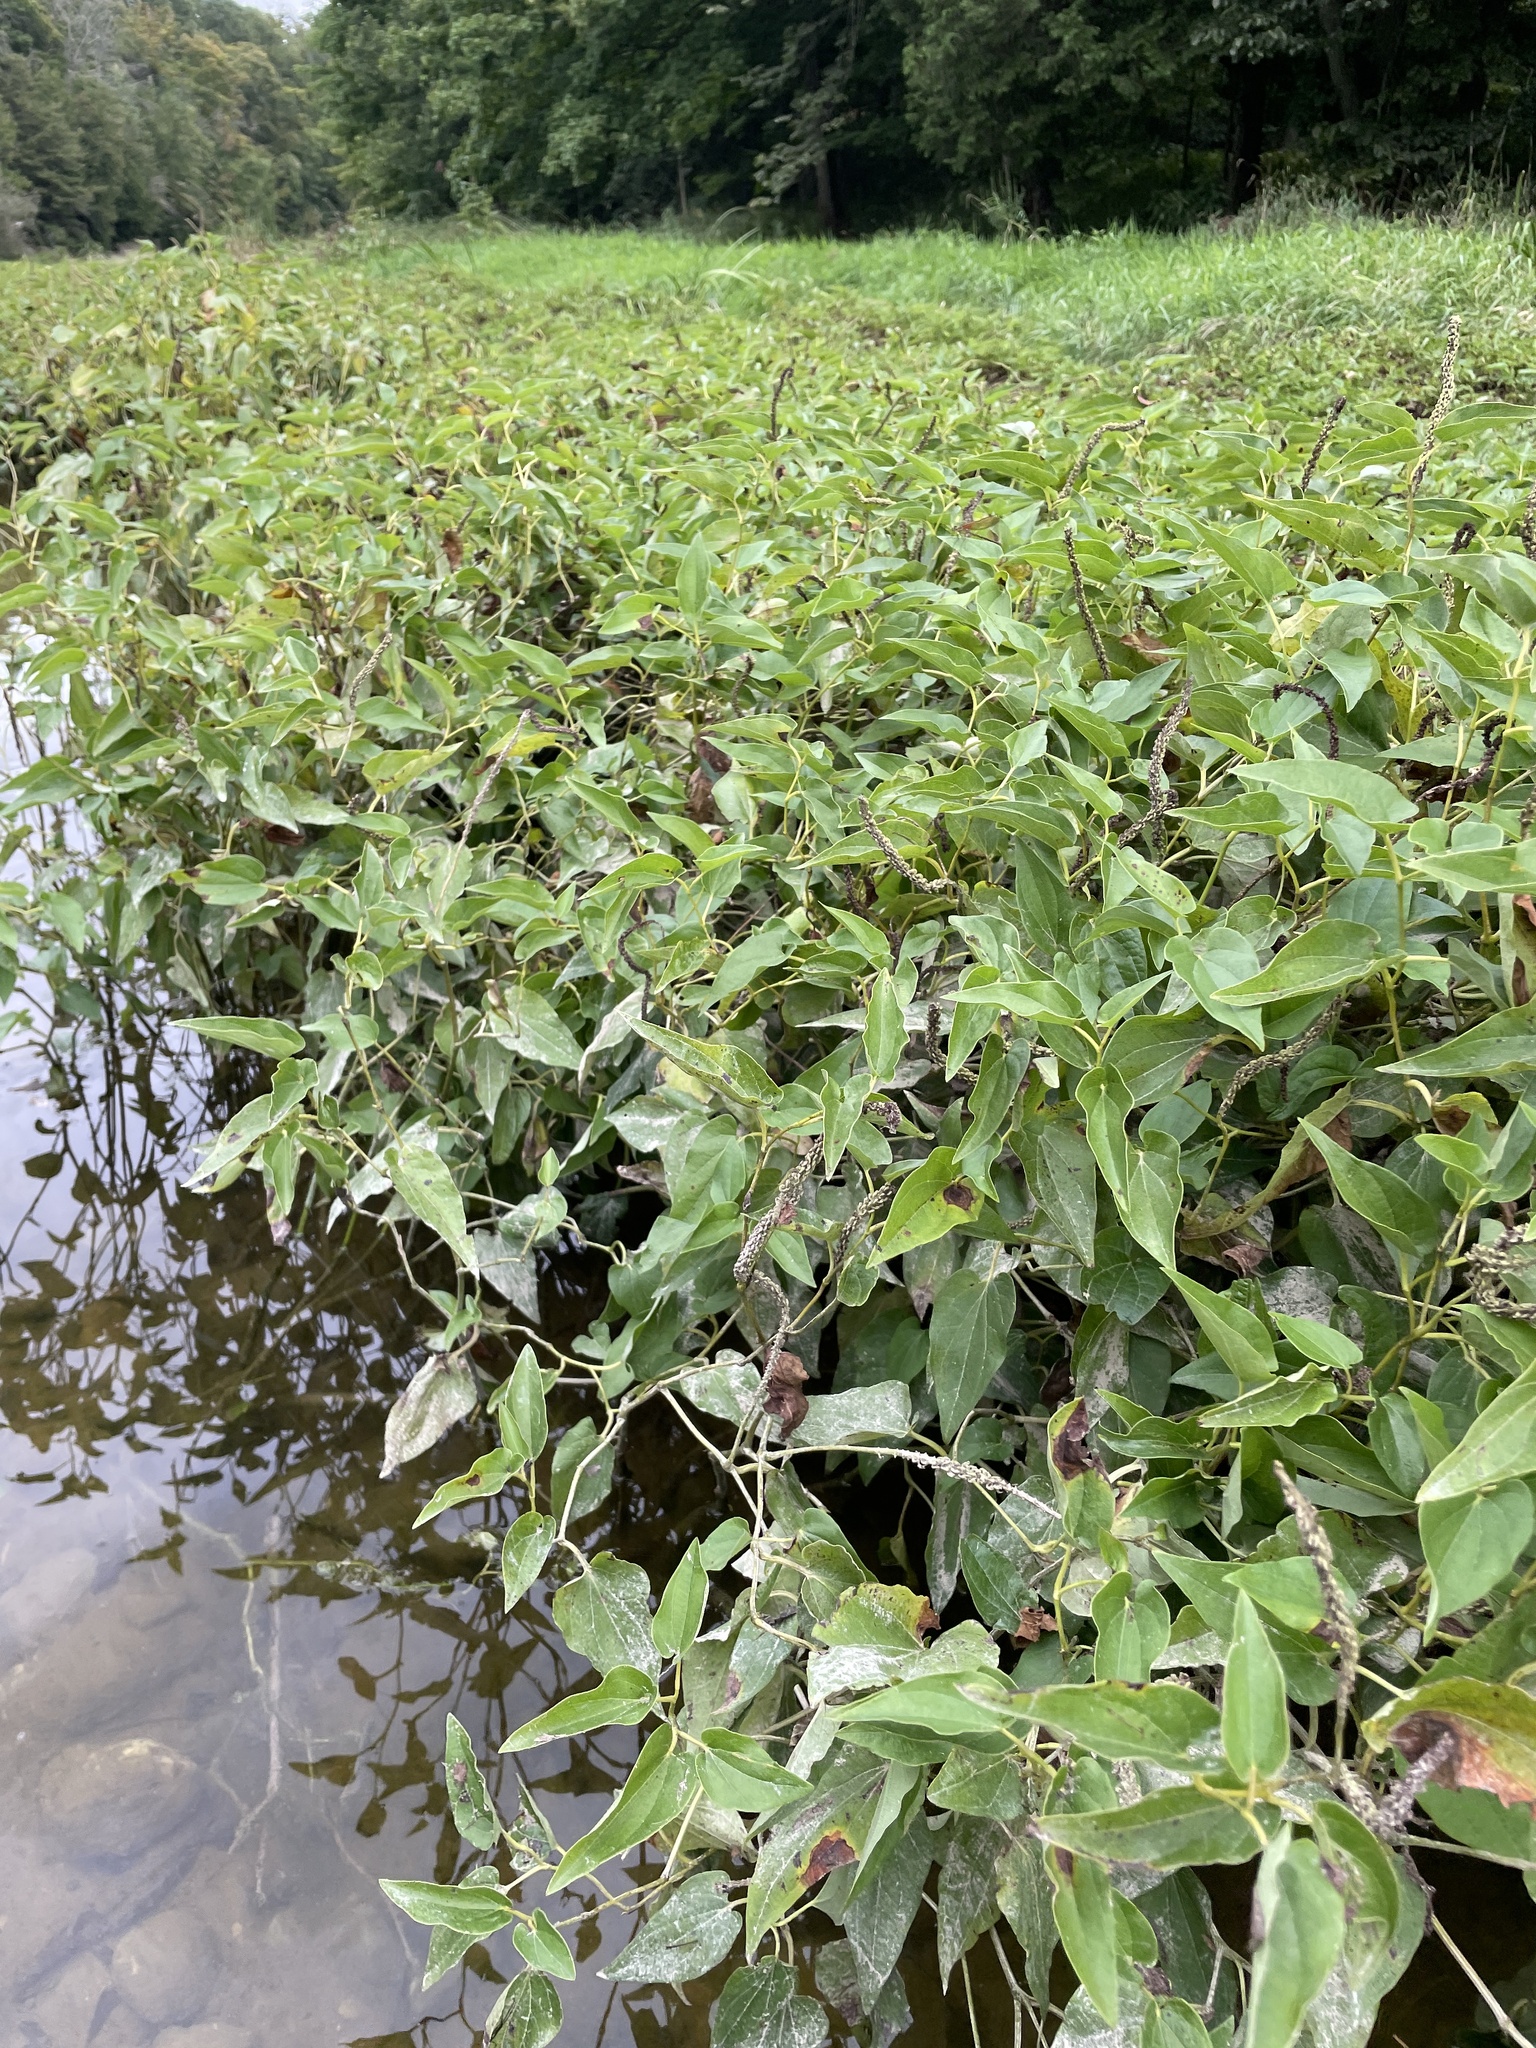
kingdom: Plantae
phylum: Tracheophyta
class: Magnoliopsida
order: Piperales
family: Saururaceae
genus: Saururus
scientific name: Saururus cernuus
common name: Lizard's-tail
